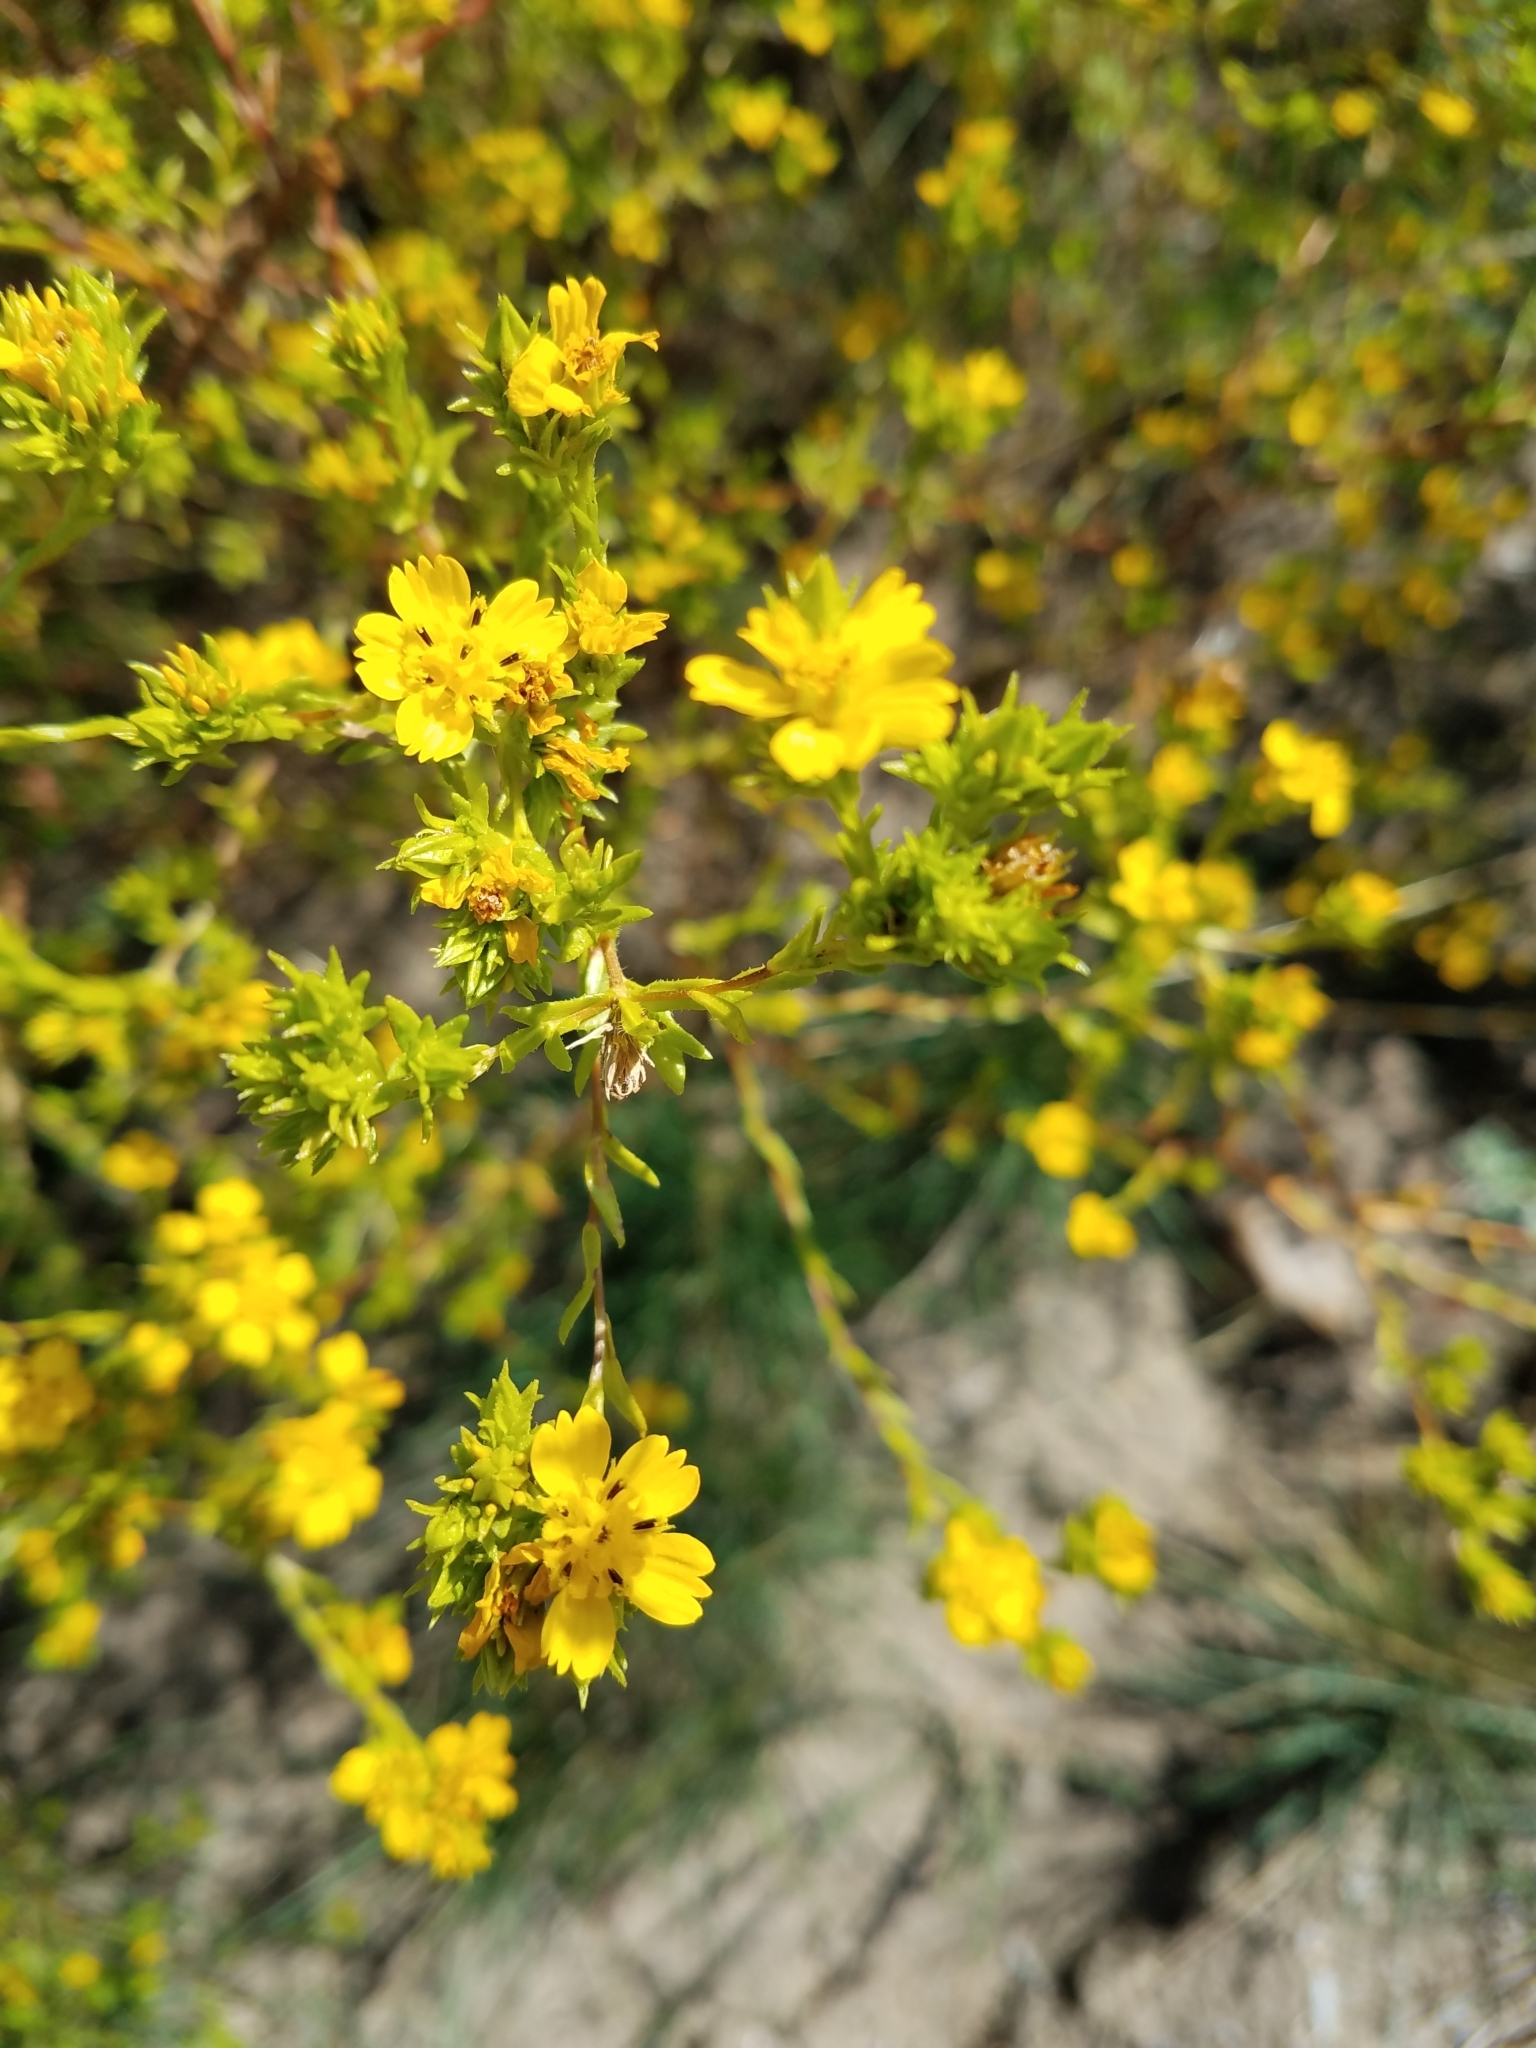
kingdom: Plantae
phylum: Tracheophyta
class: Magnoliopsida
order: Asterales
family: Asteraceae
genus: Deinandra
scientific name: Deinandra fasciculata
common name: Clustered tarweed
